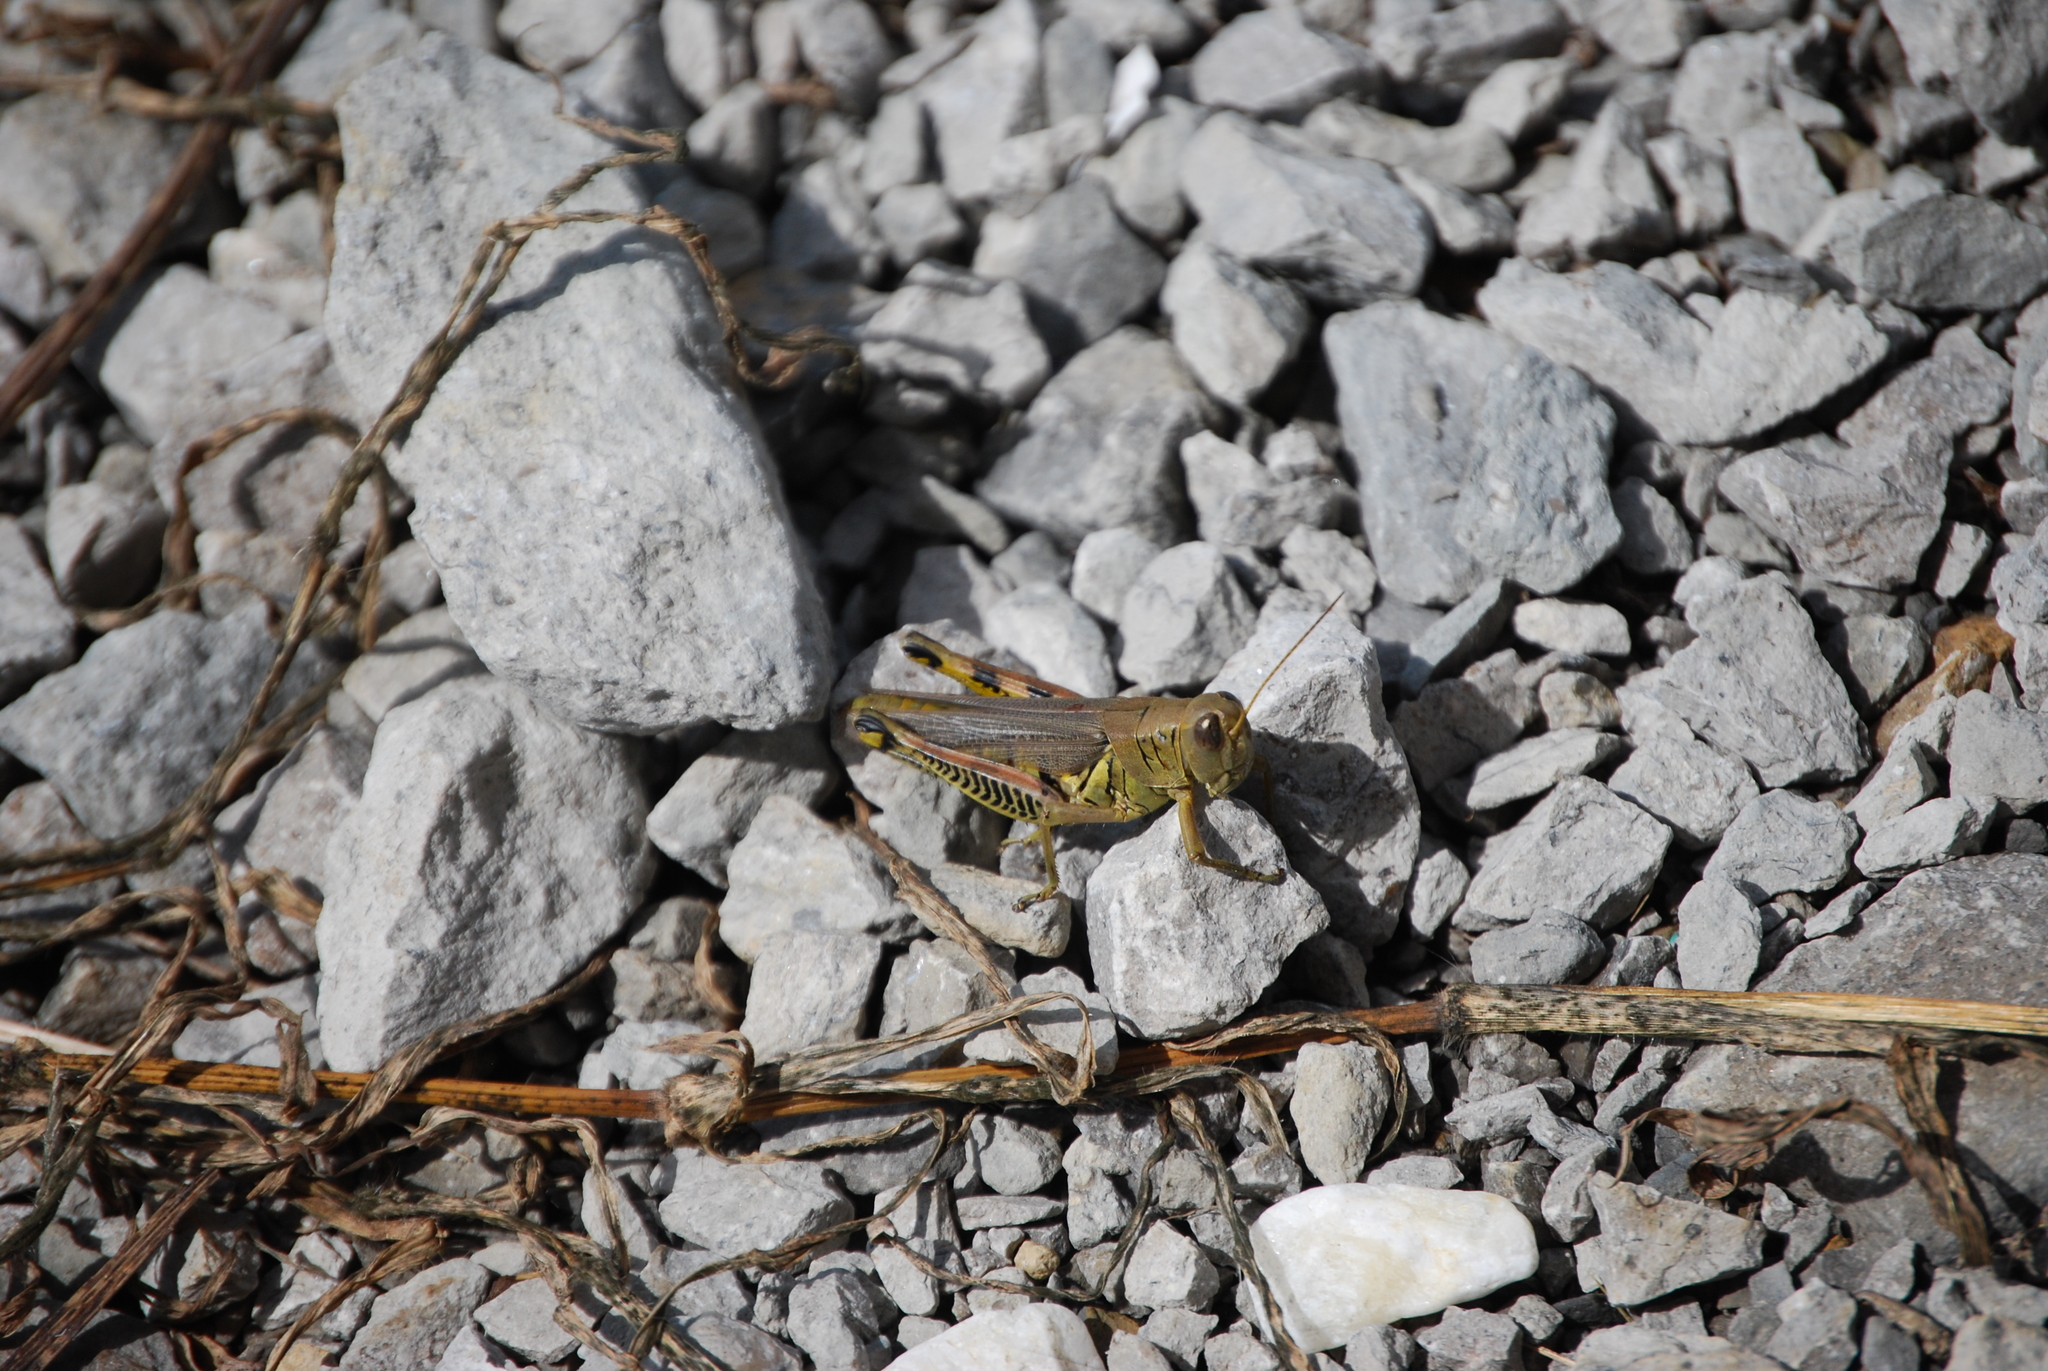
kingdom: Animalia
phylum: Arthropoda
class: Insecta
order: Orthoptera
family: Acrididae
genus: Melanoplus
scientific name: Melanoplus differentialis
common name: Differential grasshopper
